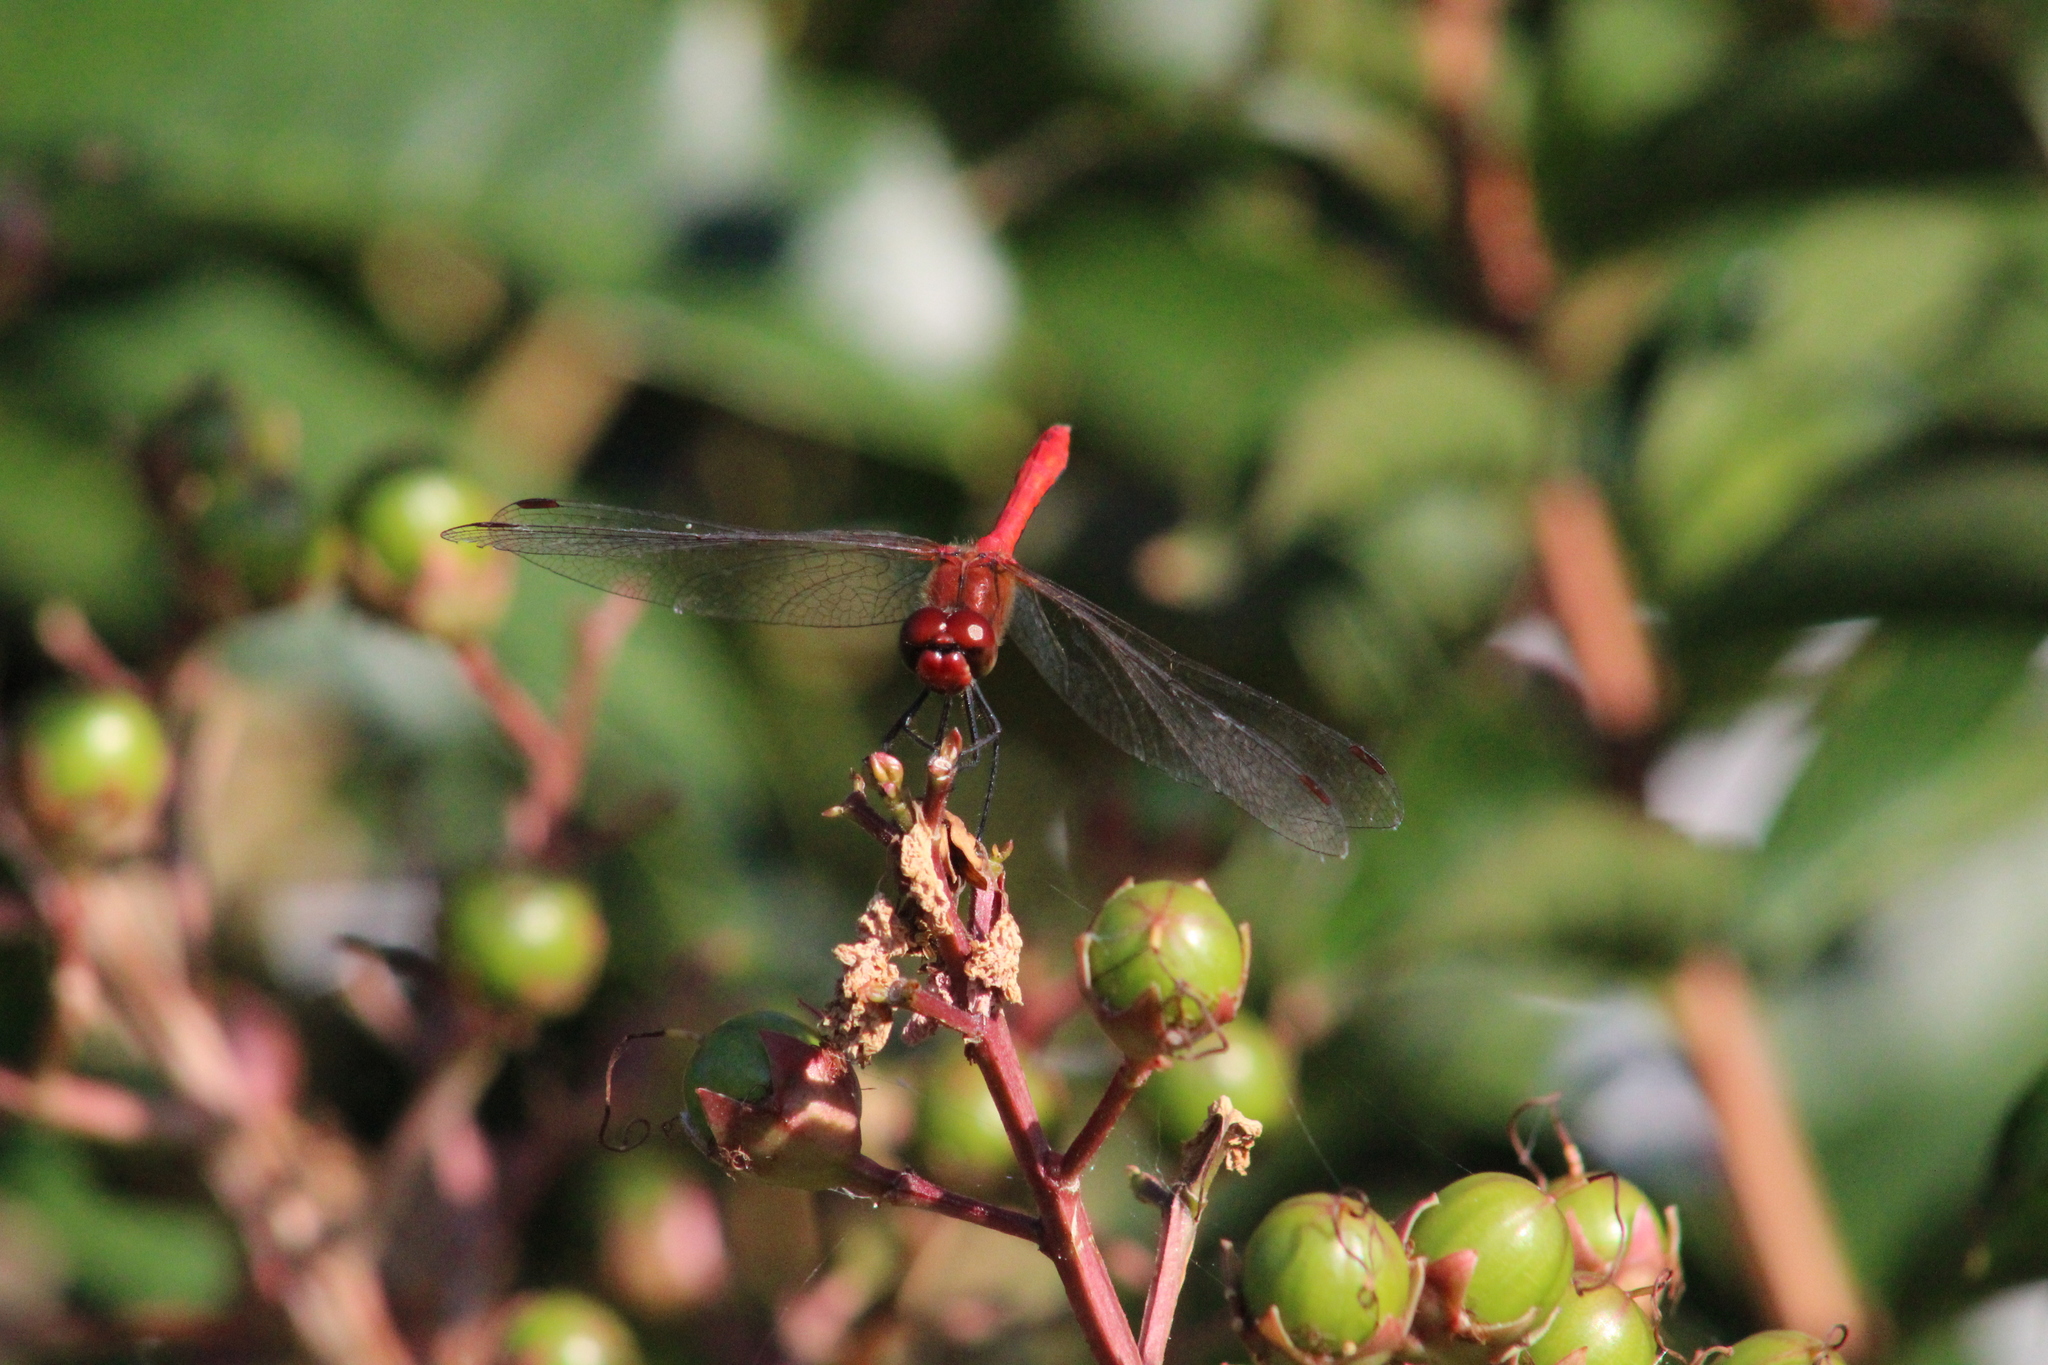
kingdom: Animalia
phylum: Arthropoda
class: Insecta
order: Odonata
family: Libellulidae
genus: Sympetrum
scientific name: Sympetrum sanguineum
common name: Ruddy darter
